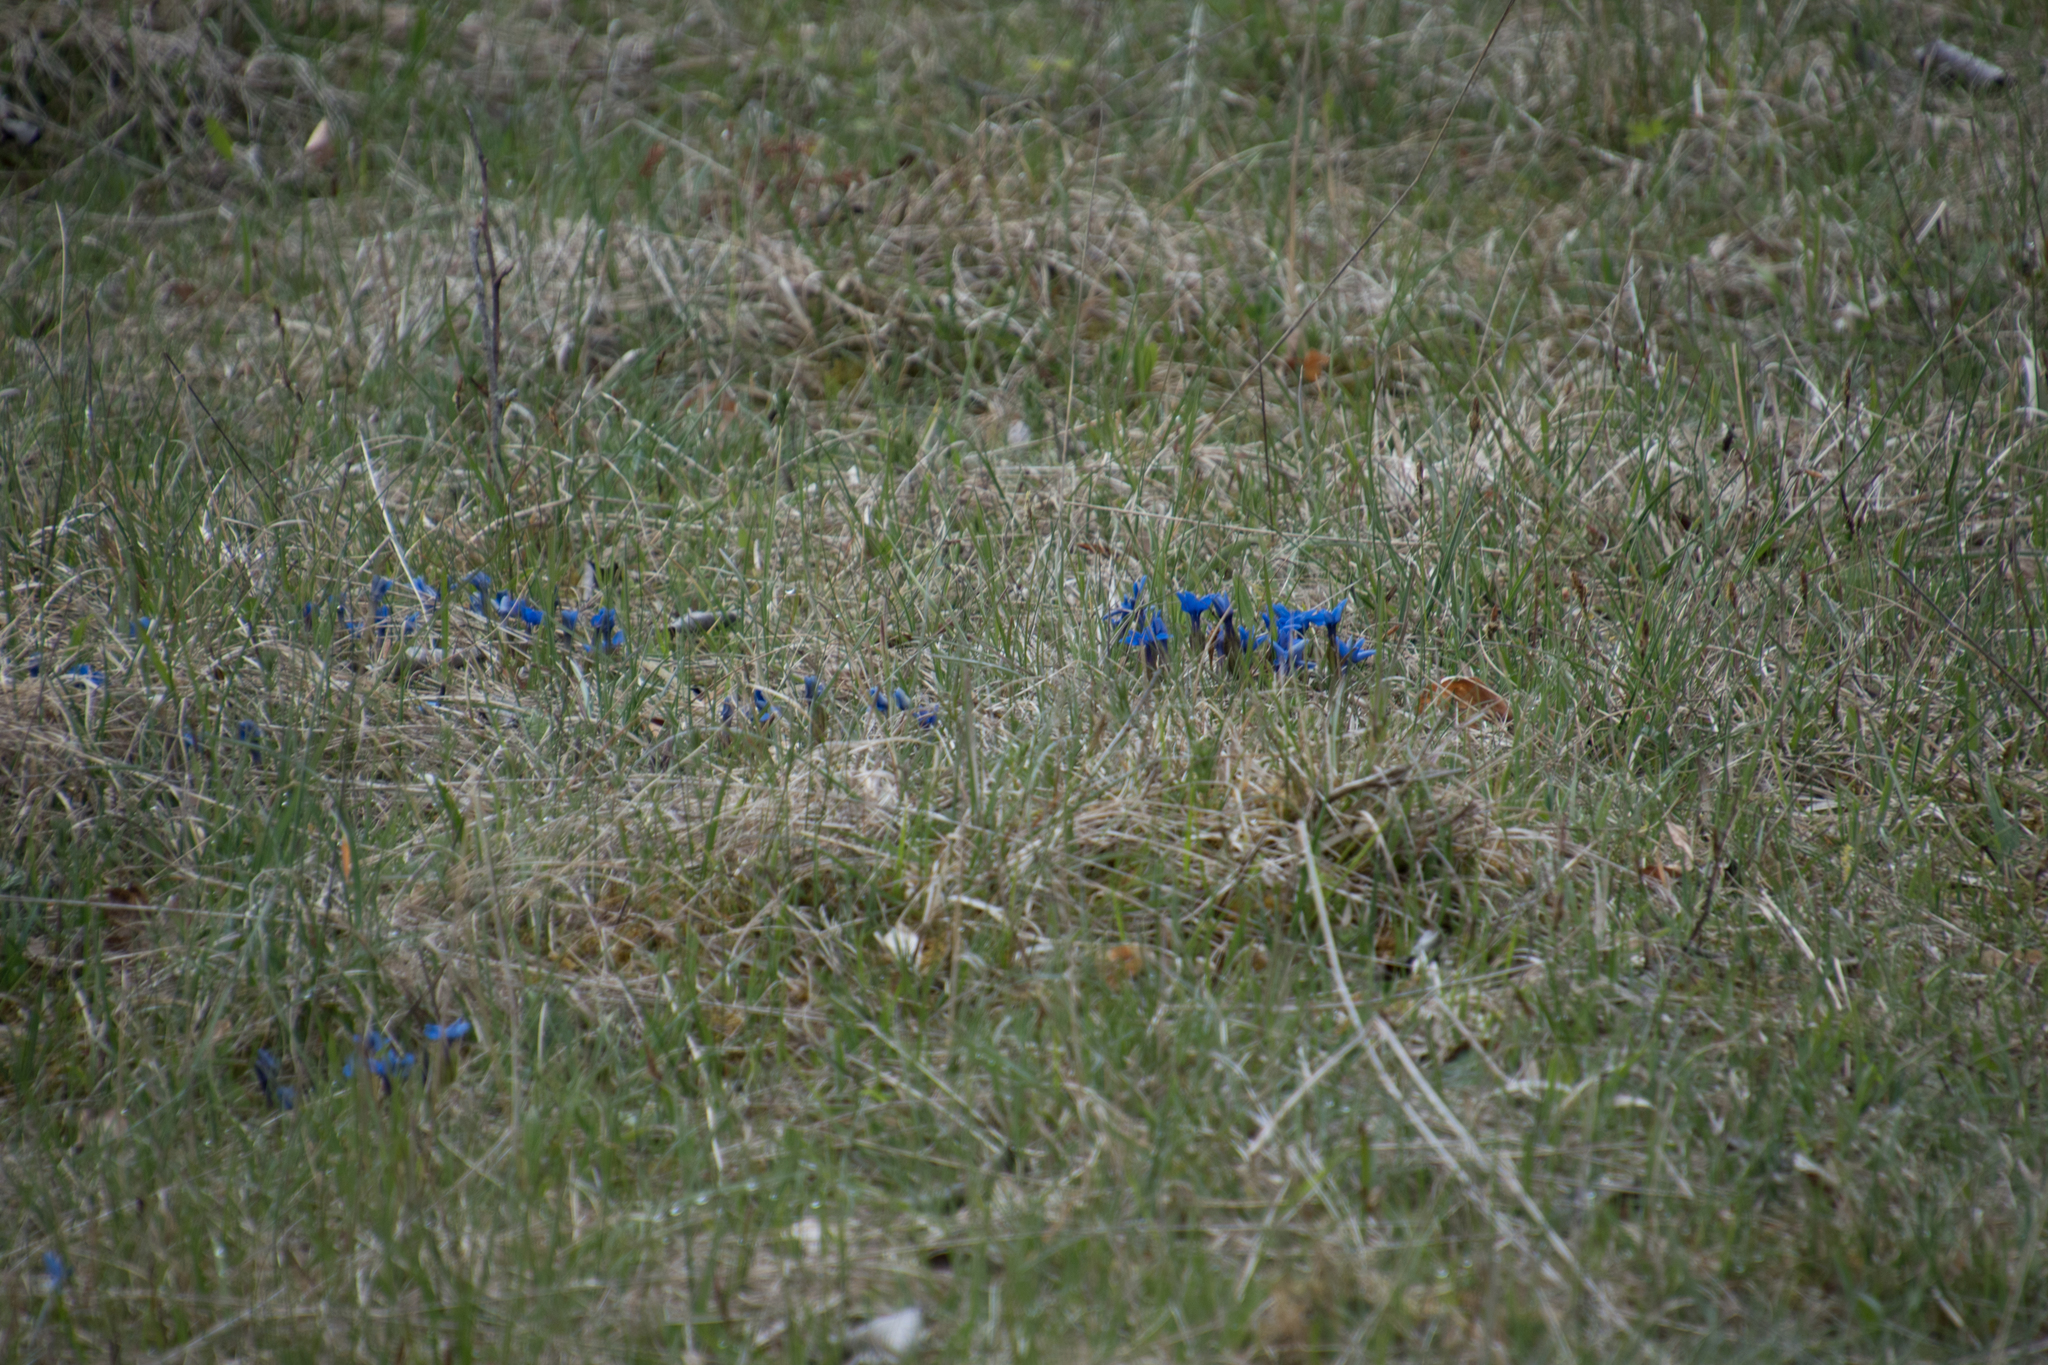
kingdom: Plantae
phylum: Tracheophyta
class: Magnoliopsida
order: Gentianales
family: Gentianaceae
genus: Gentiana
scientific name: Gentiana verna
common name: Spring gentian
